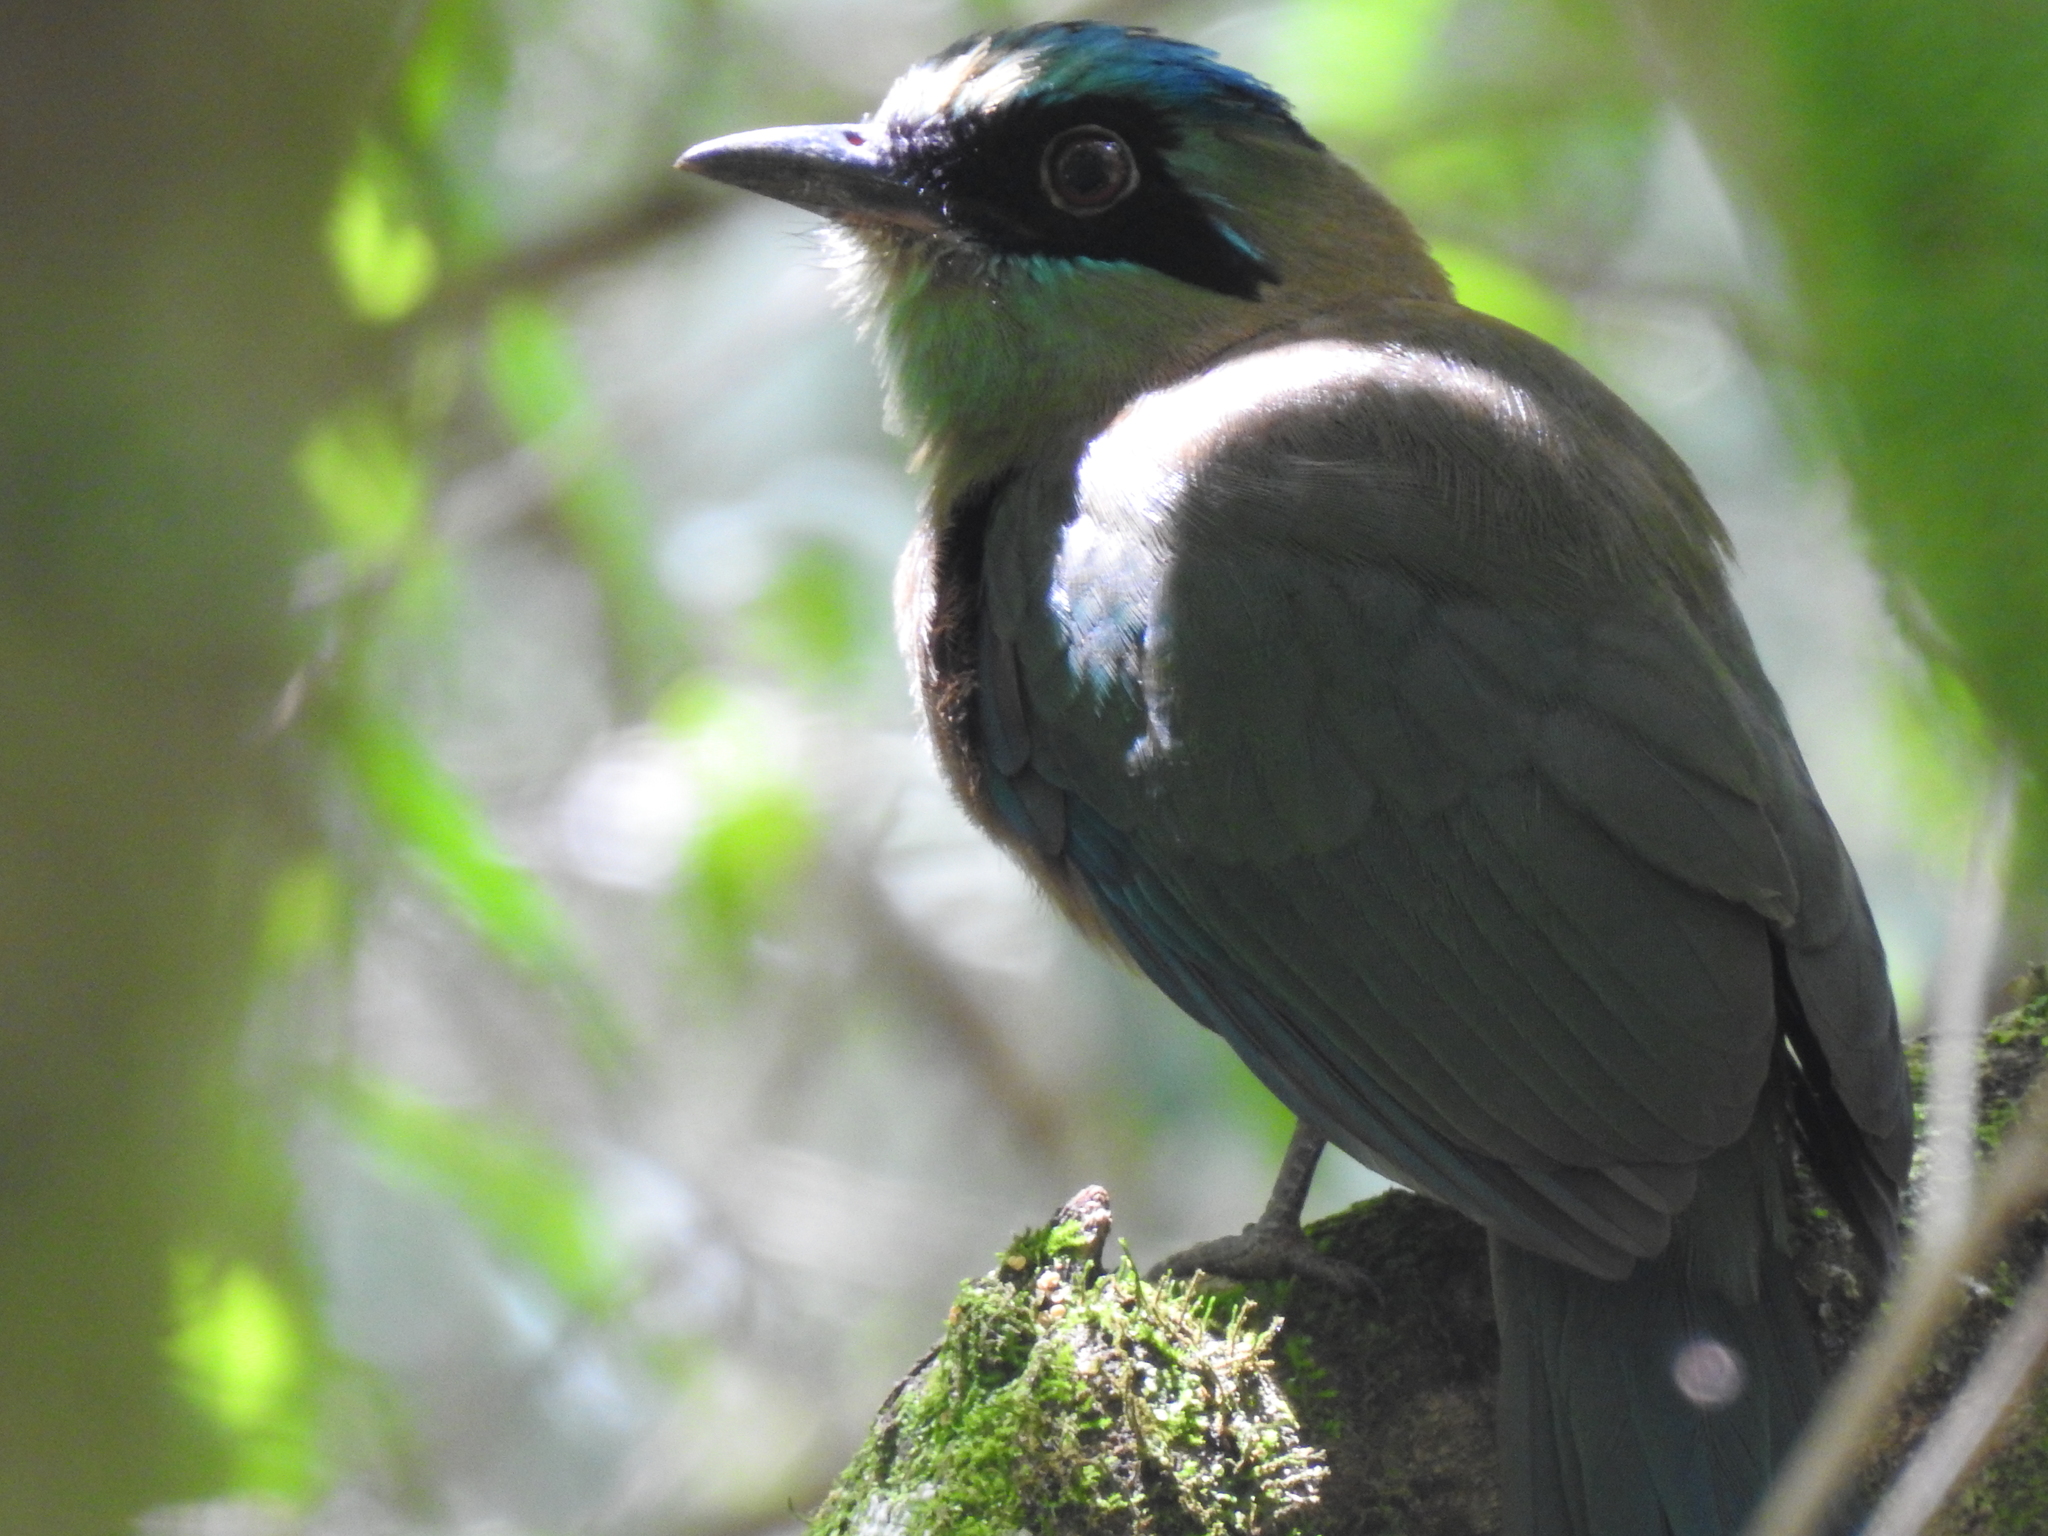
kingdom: Animalia
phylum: Chordata
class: Aves
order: Coraciiformes
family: Momotidae
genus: Momotus
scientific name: Momotus coeruliceps
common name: Blue-capped motmot
